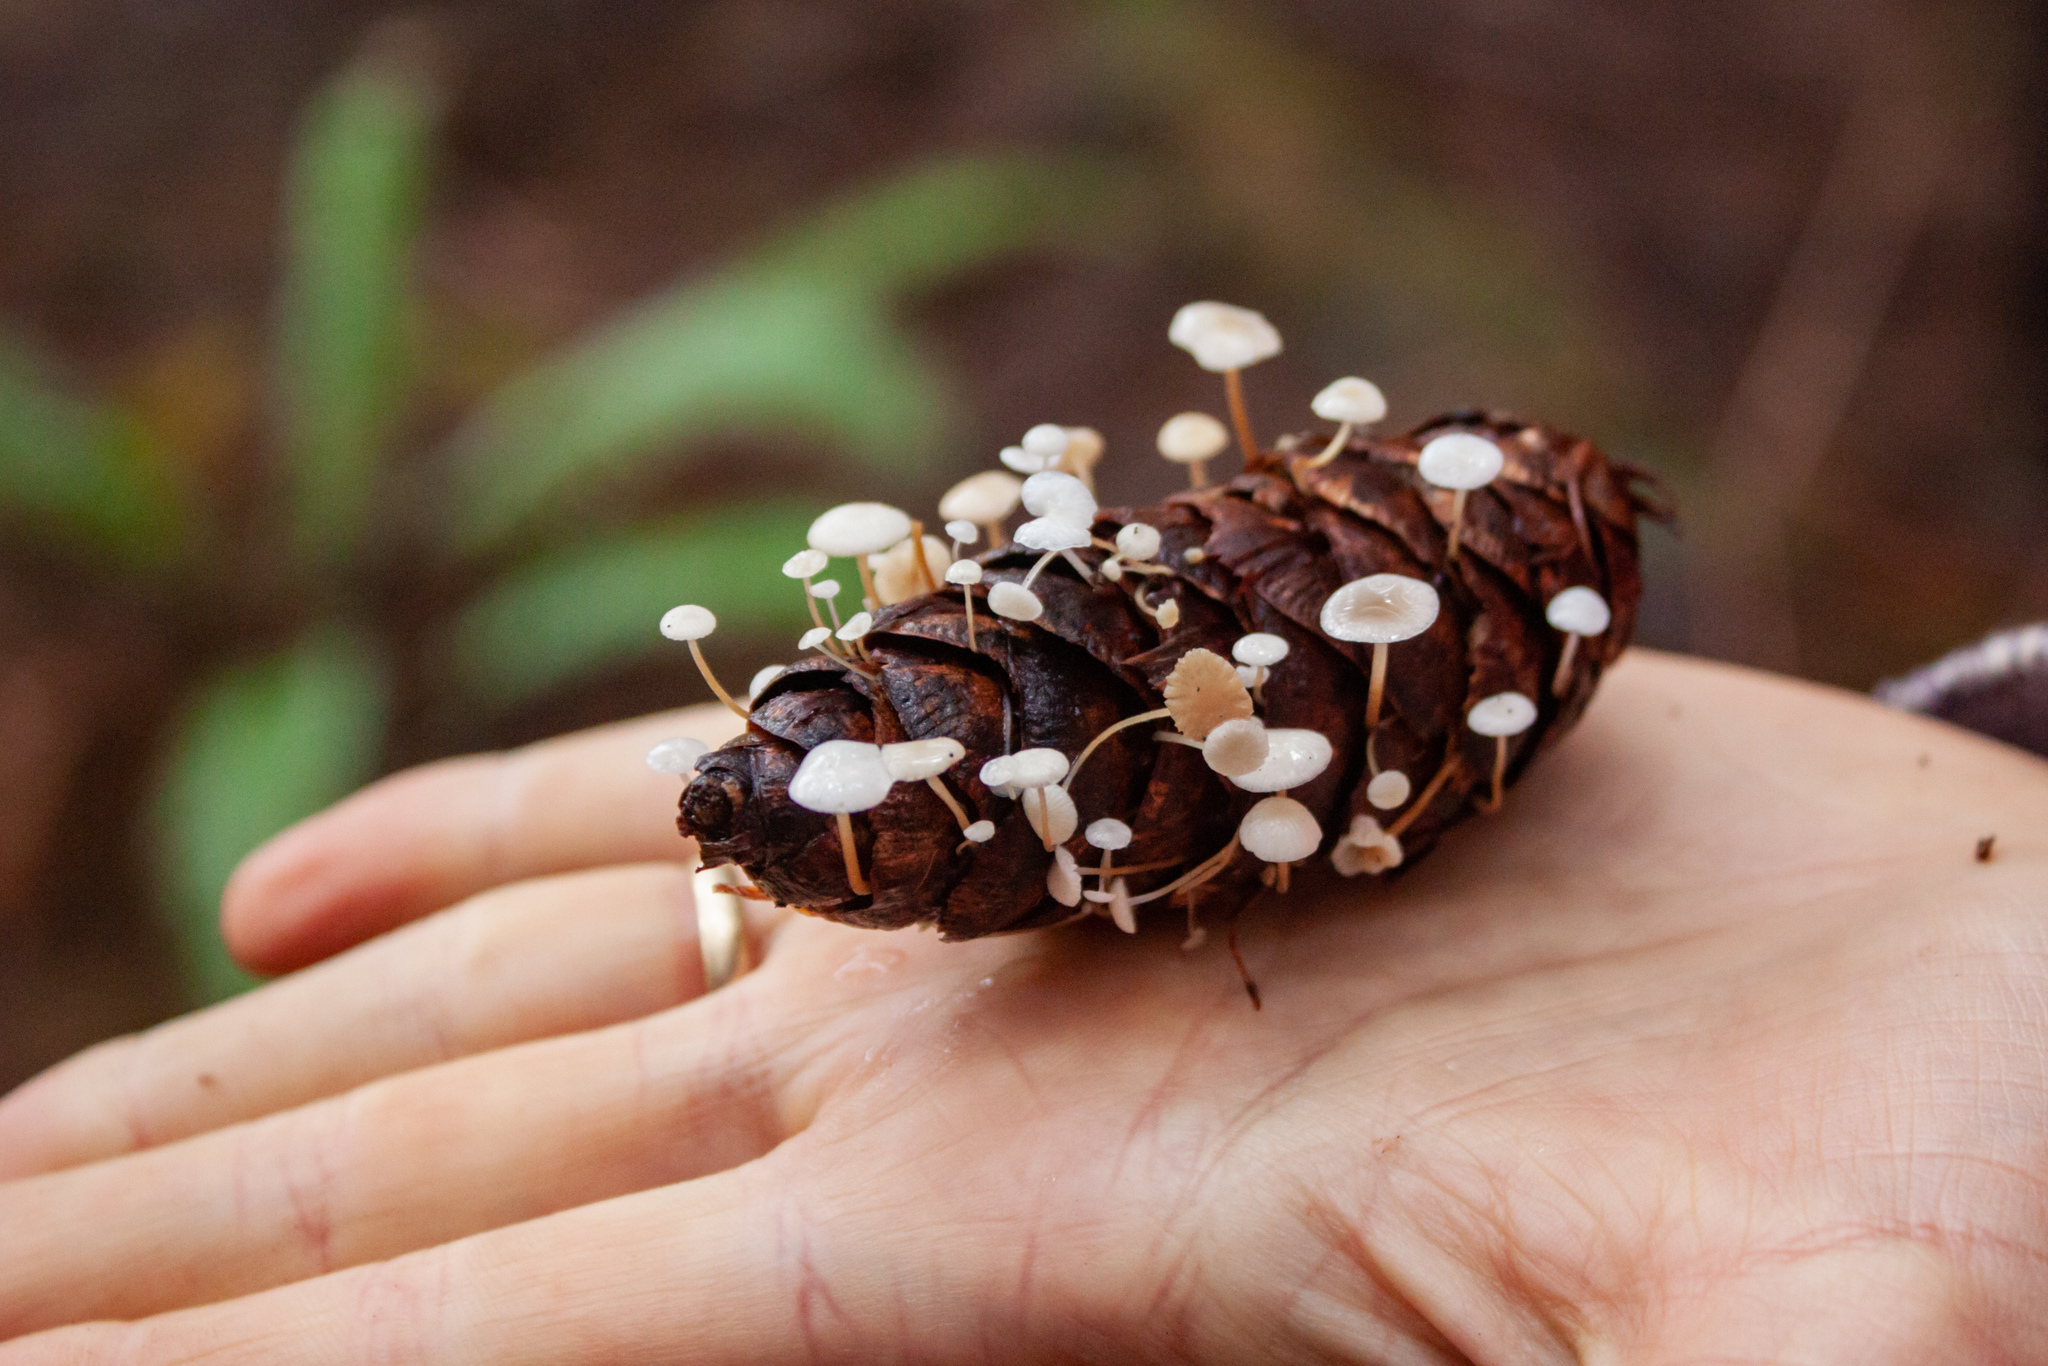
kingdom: Fungi
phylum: Basidiomycota
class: Agaricomycetes
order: Agaricales
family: Physalacriaceae
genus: Strobilurus
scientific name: Strobilurus trullisatus
